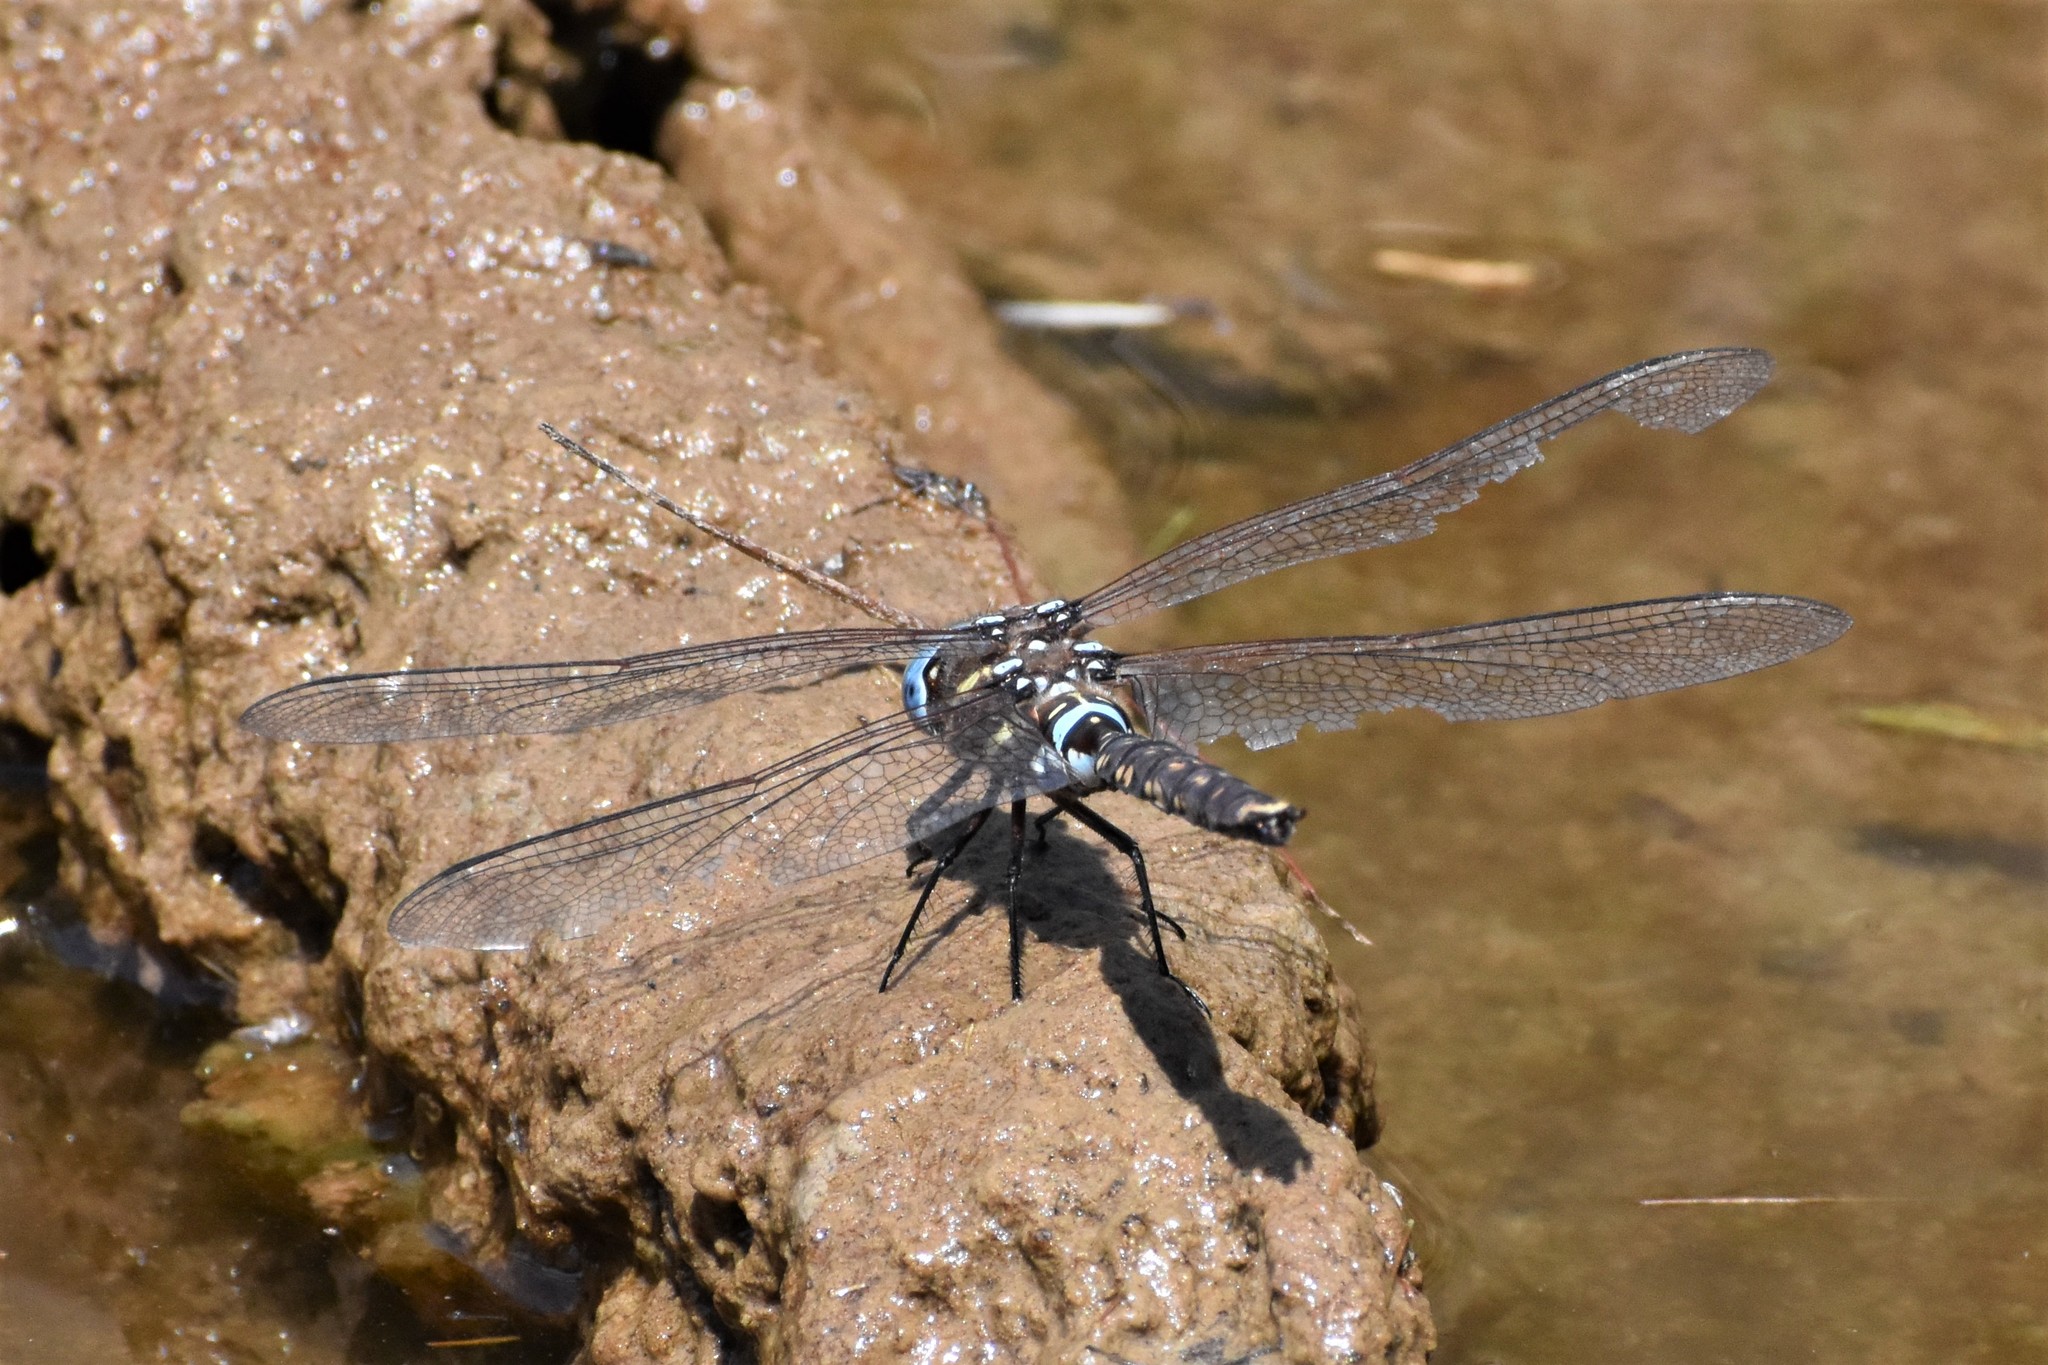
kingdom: Animalia
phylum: Arthropoda
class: Insecta
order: Odonata
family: Aeshnidae
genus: Aeshna
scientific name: Aeshna brevistyla
